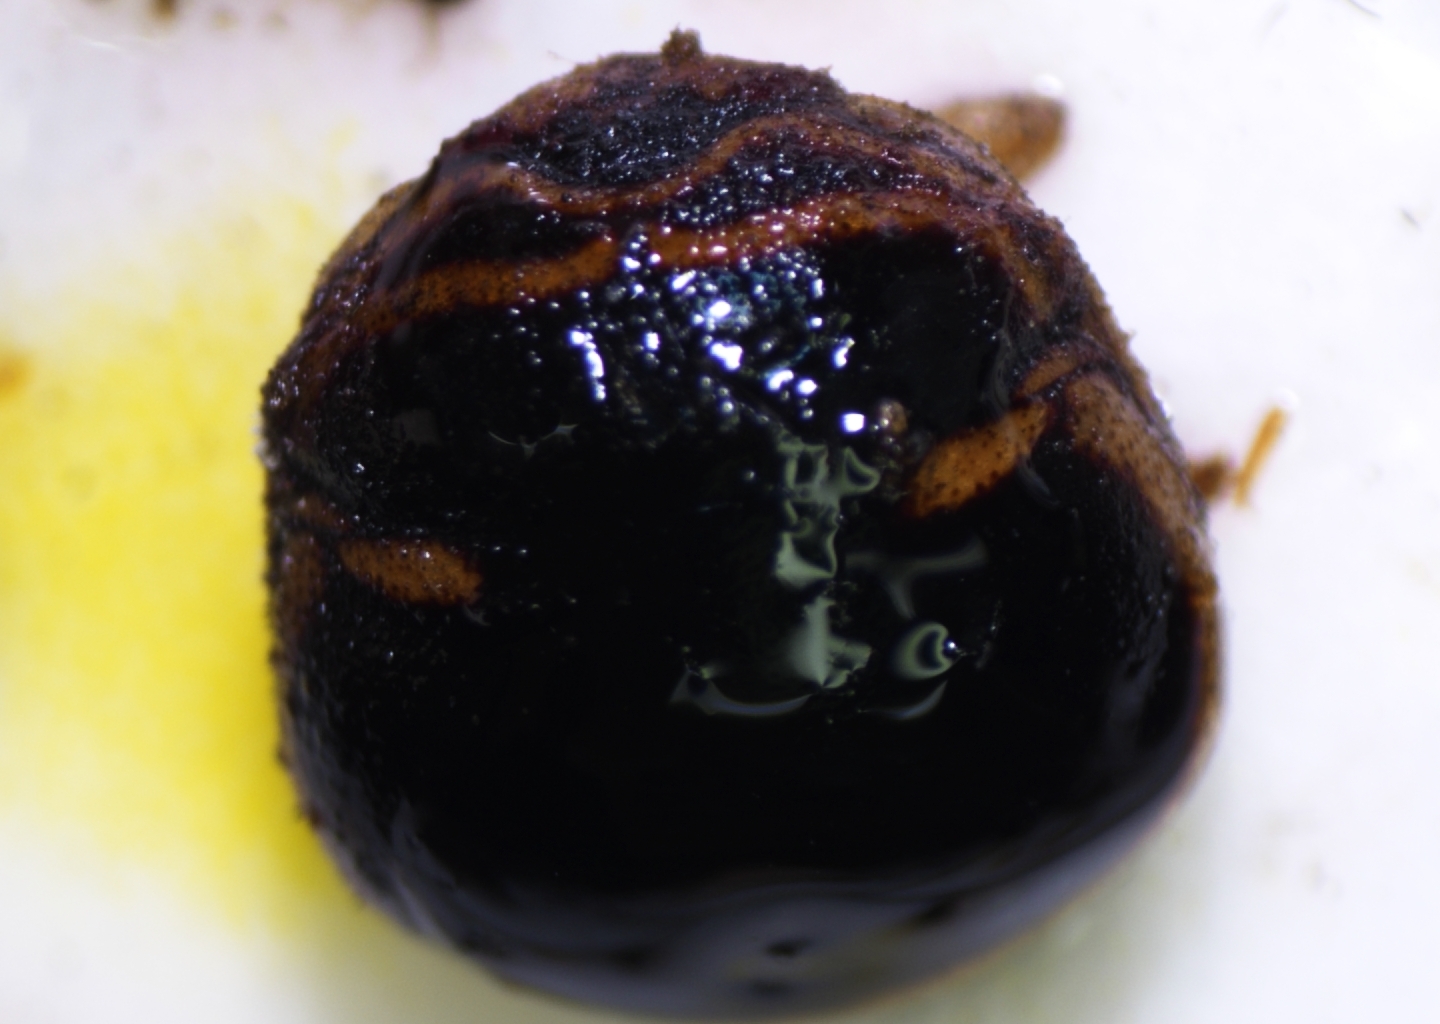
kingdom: Animalia
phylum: Arthropoda
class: Insecta
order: Hemiptera
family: Plataspidae
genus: Coptosoma
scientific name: Coptosoma
